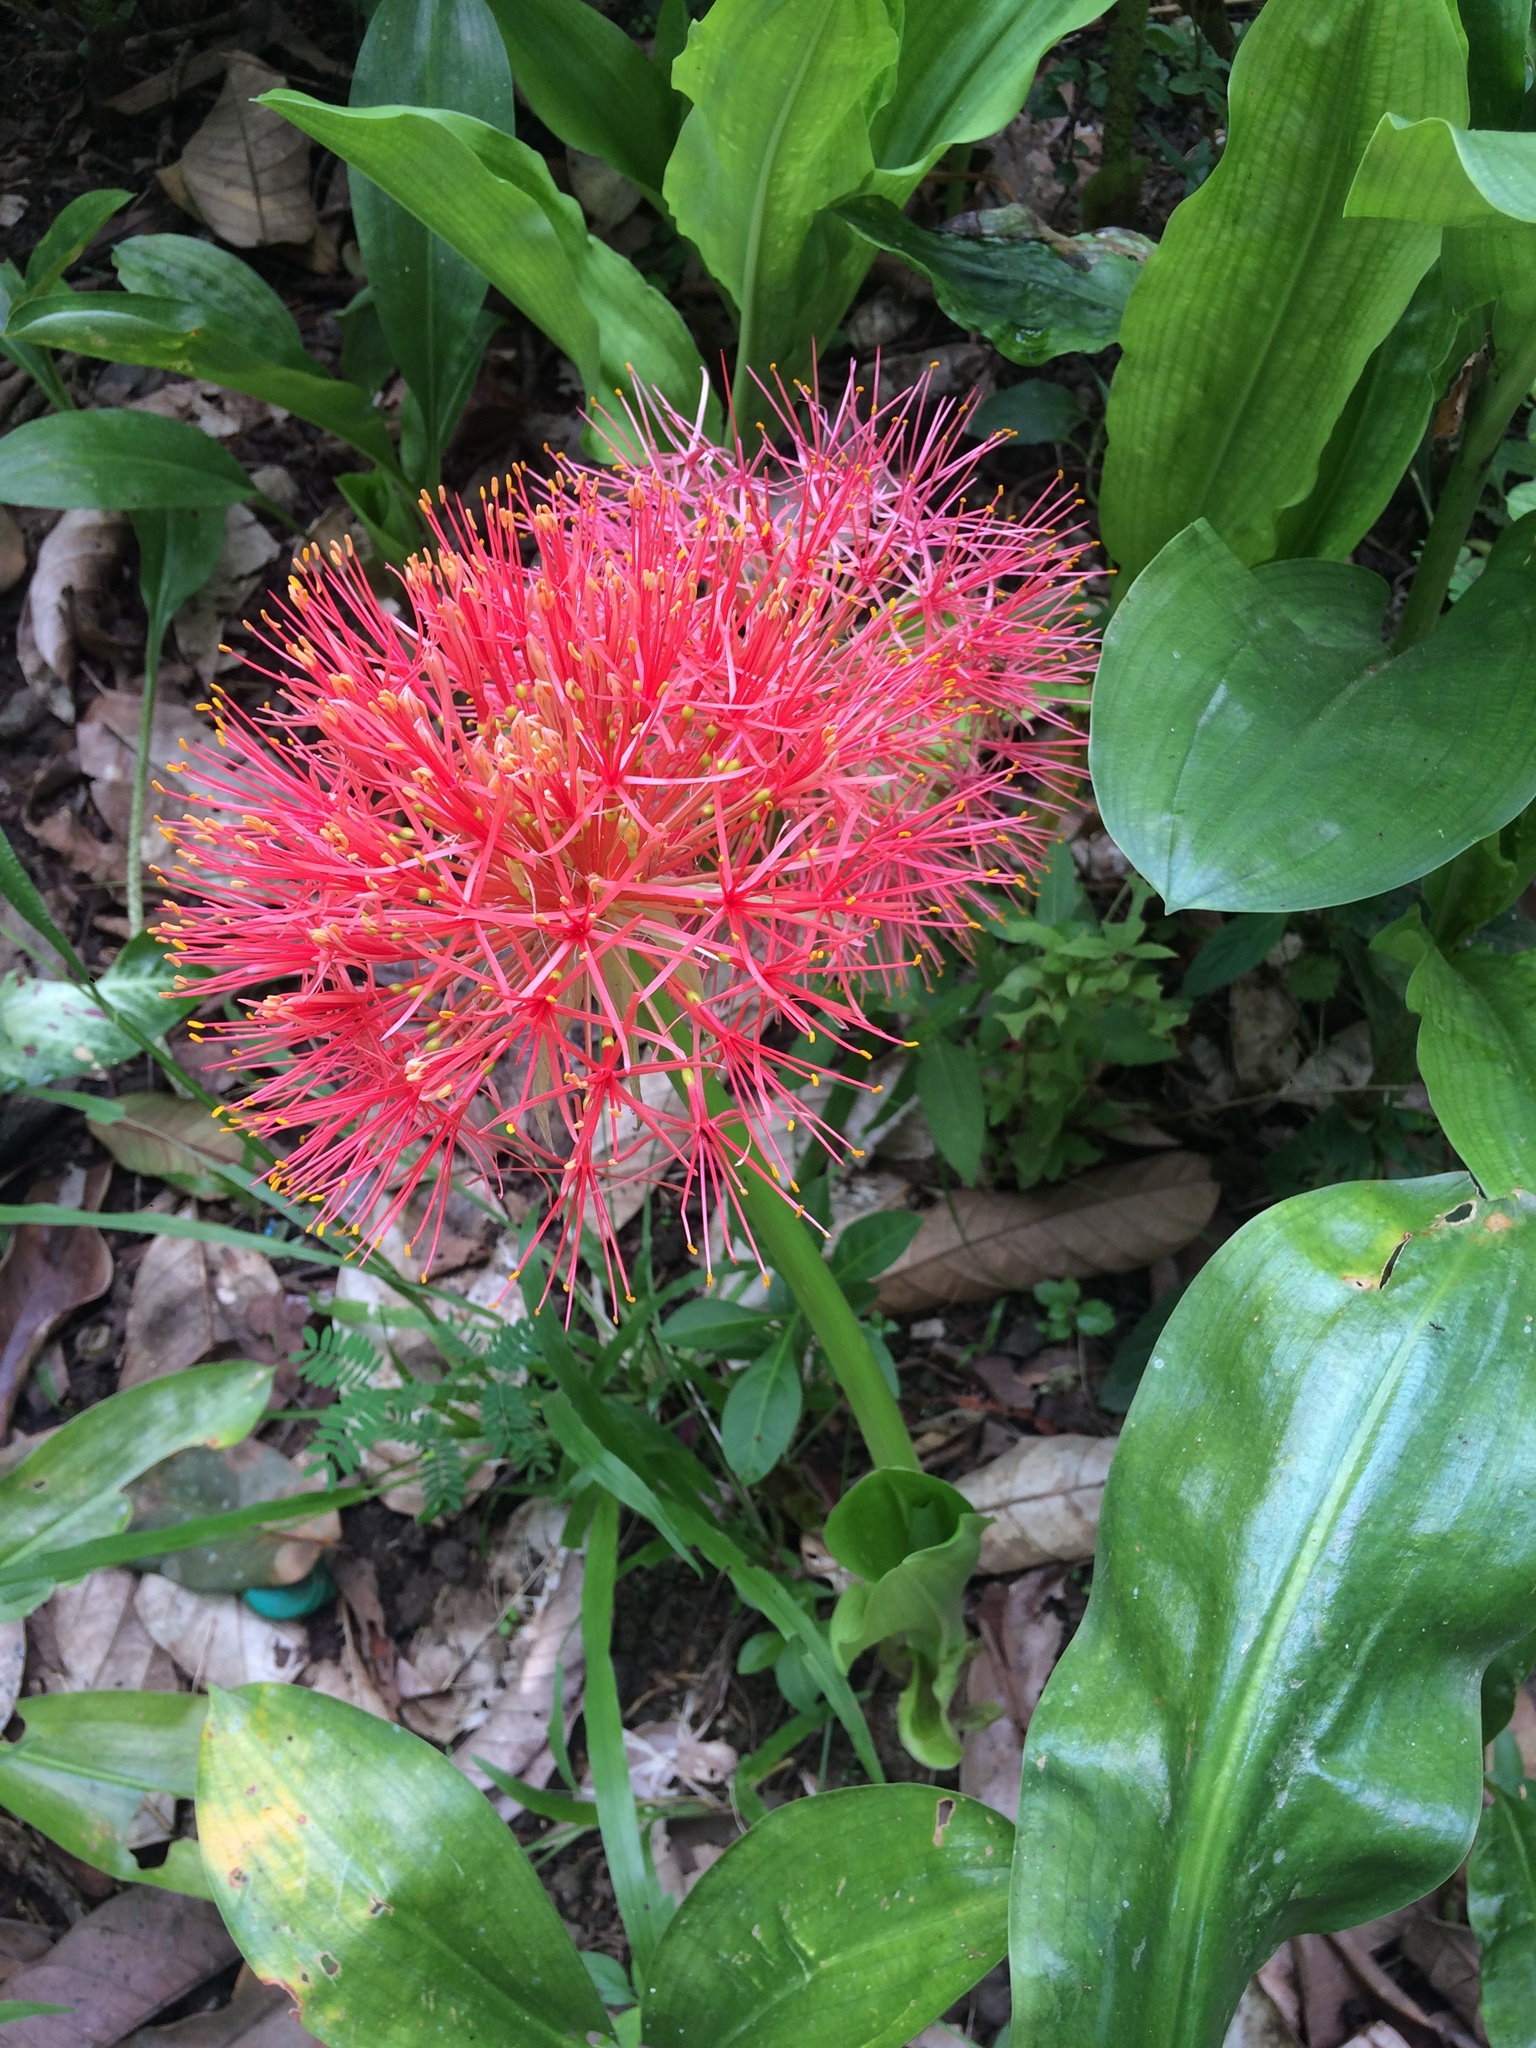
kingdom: Plantae
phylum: Tracheophyta
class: Liliopsida
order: Asparagales
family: Amaryllidaceae
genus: Scadoxus
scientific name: Scadoxus multiflorus
